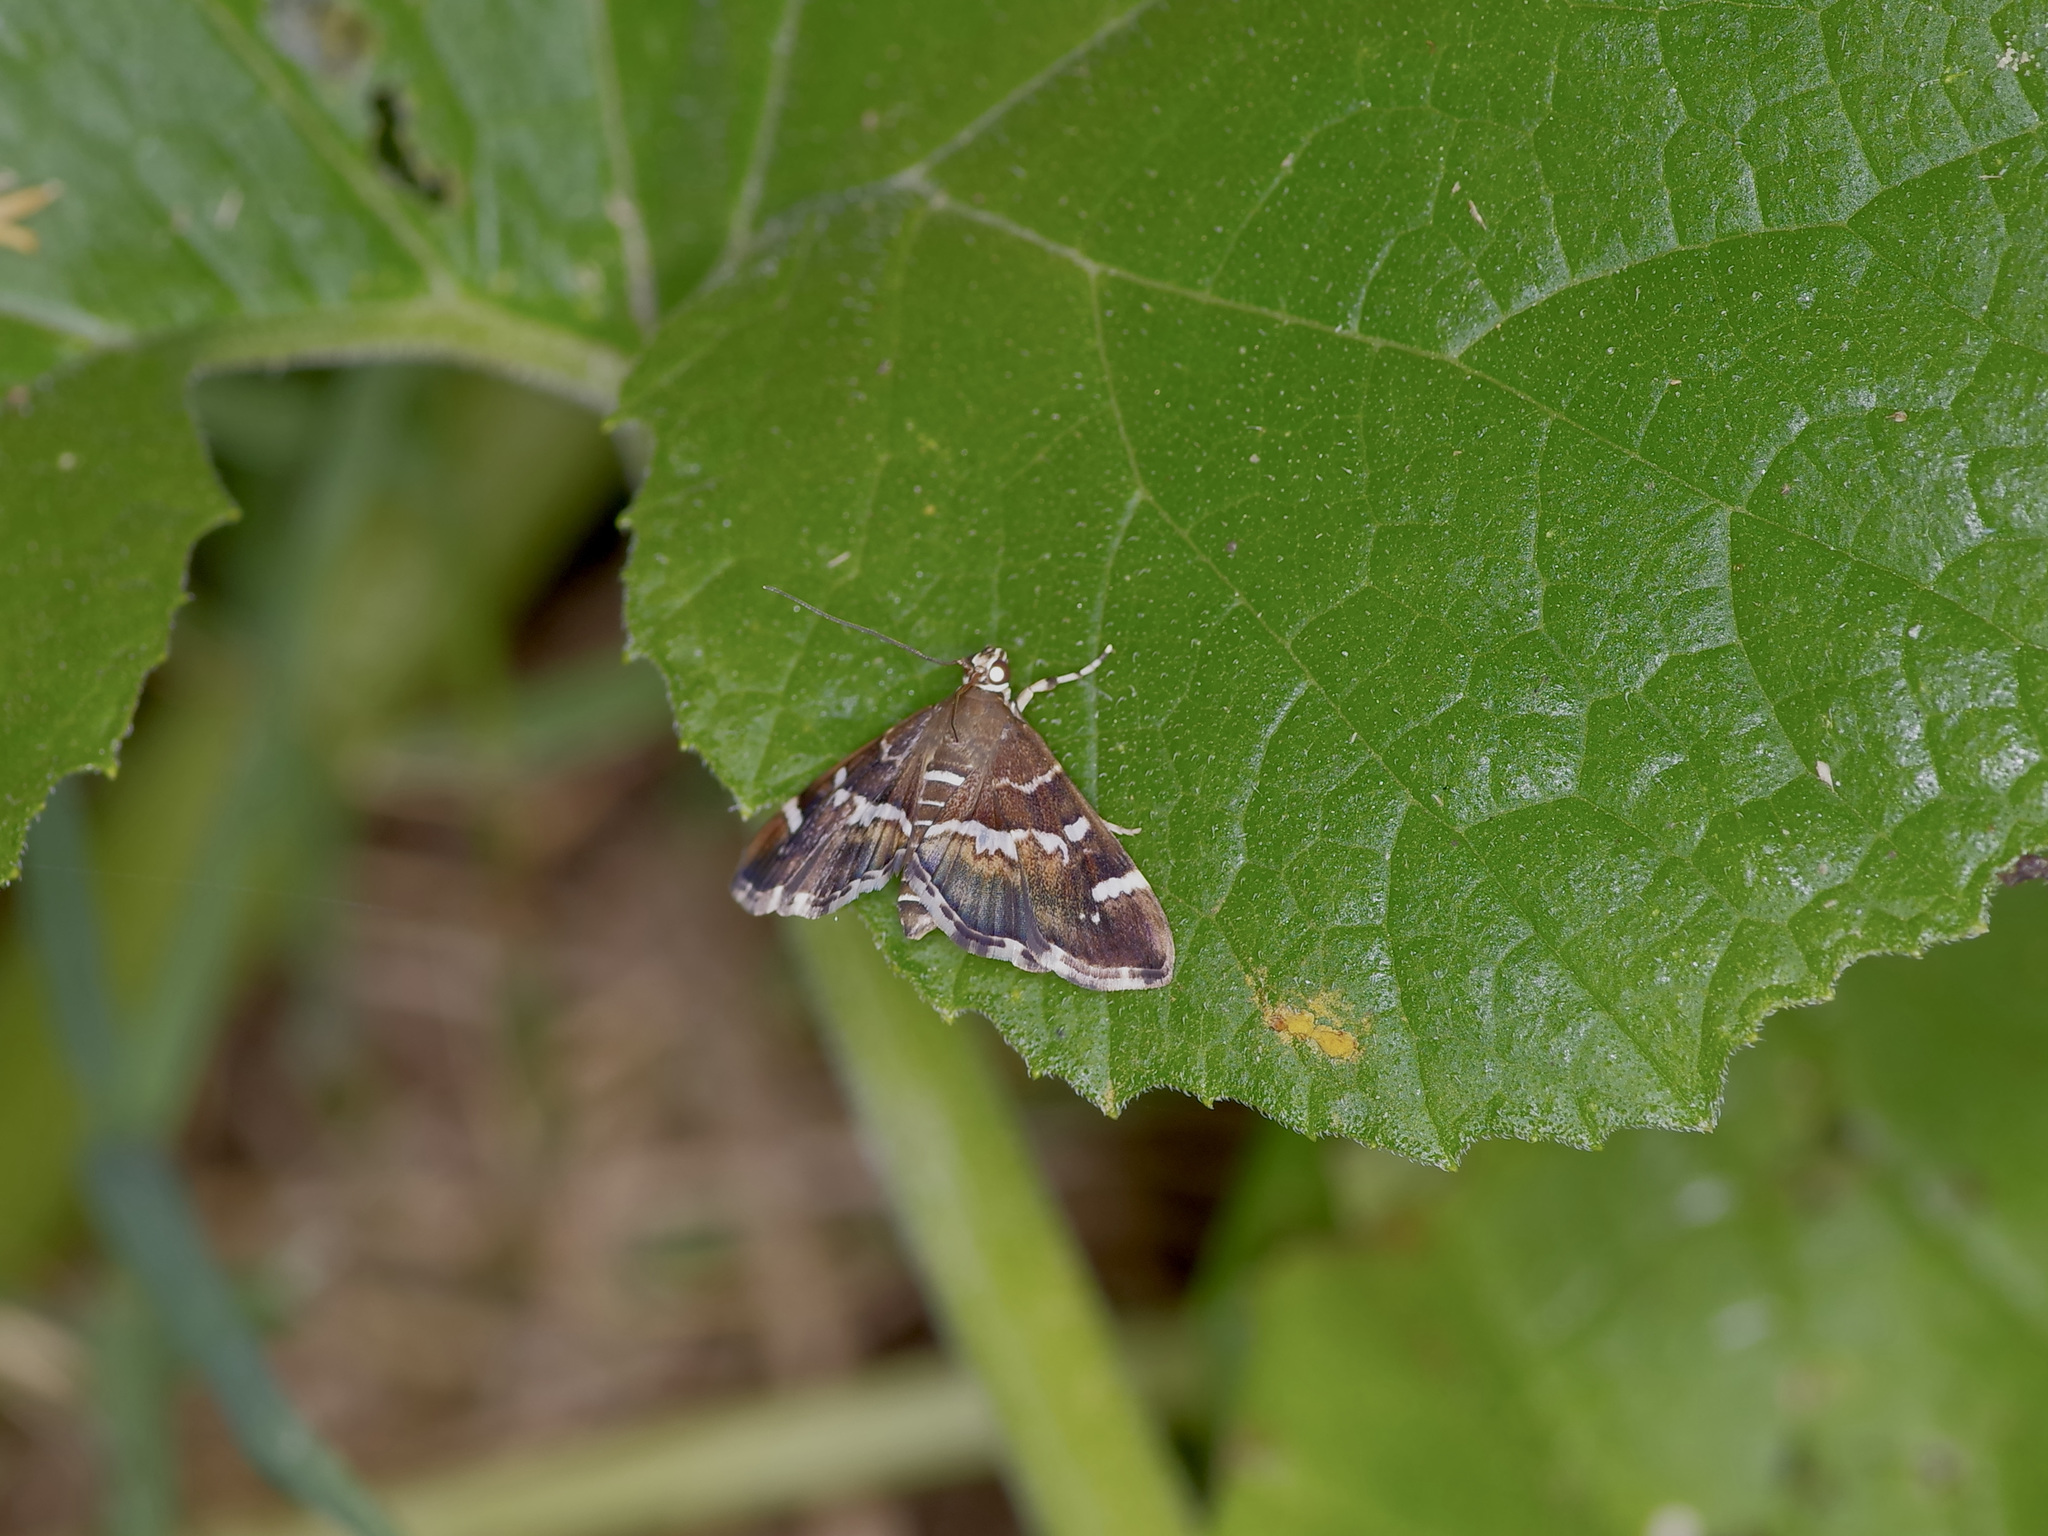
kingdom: Animalia
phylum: Arthropoda
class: Insecta
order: Lepidoptera
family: Crambidae
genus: Hymenia
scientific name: Hymenia perspectalis
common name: Spotted beet webworm
